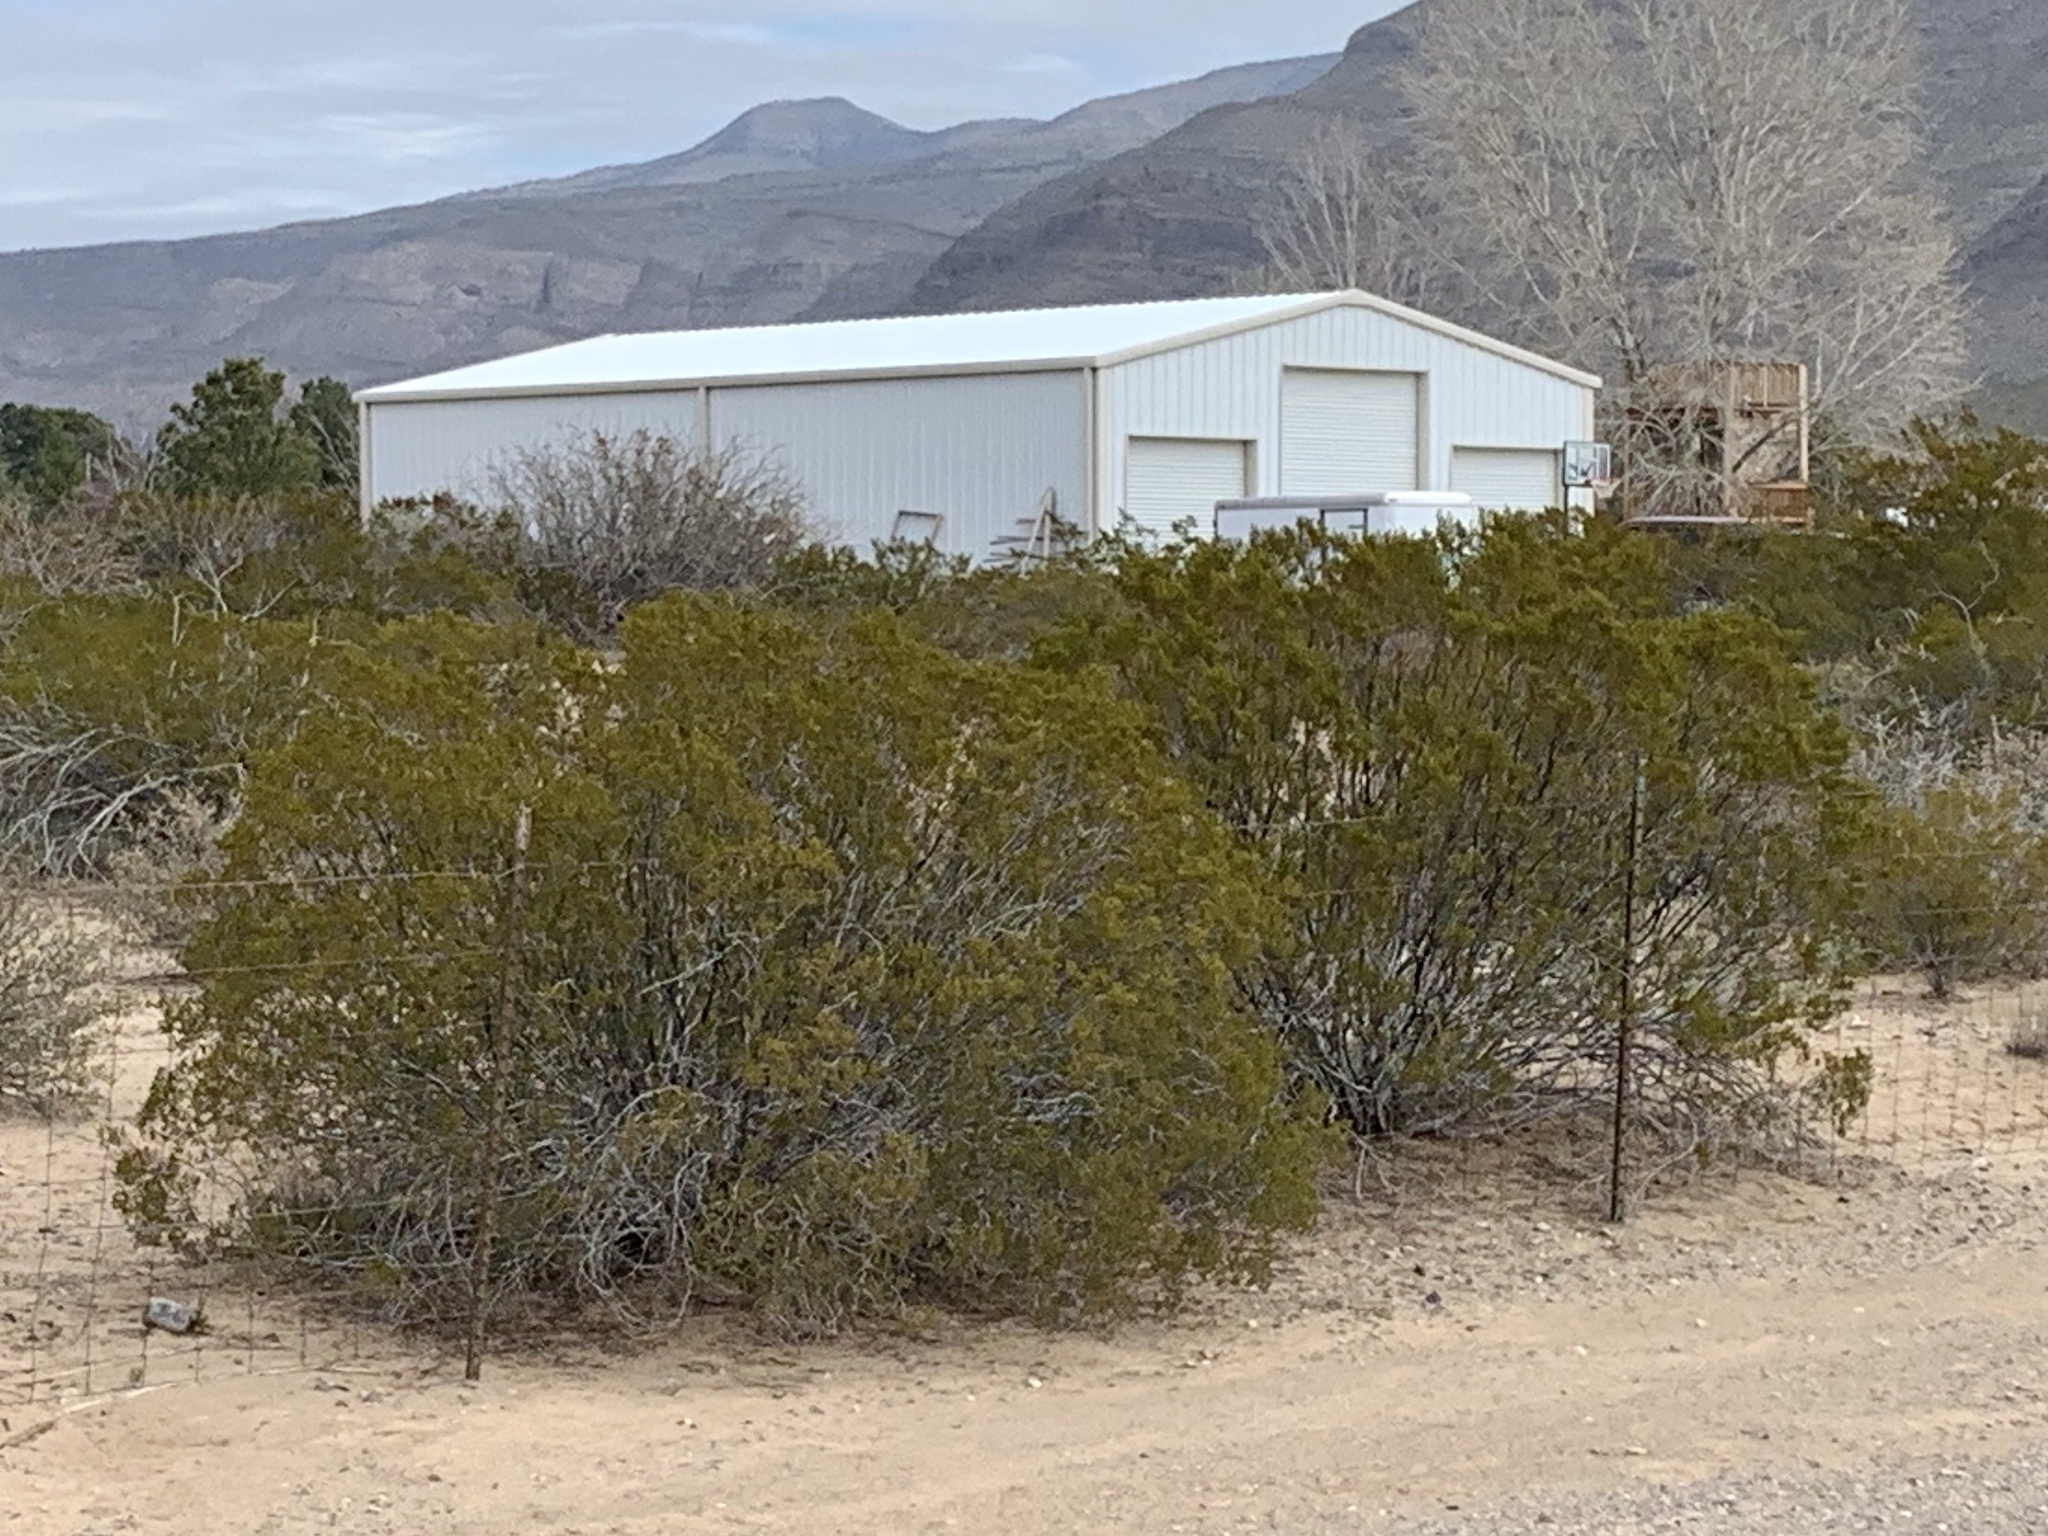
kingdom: Plantae
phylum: Tracheophyta
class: Magnoliopsida
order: Zygophyllales
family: Zygophyllaceae
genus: Larrea
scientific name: Larrea tridentata
